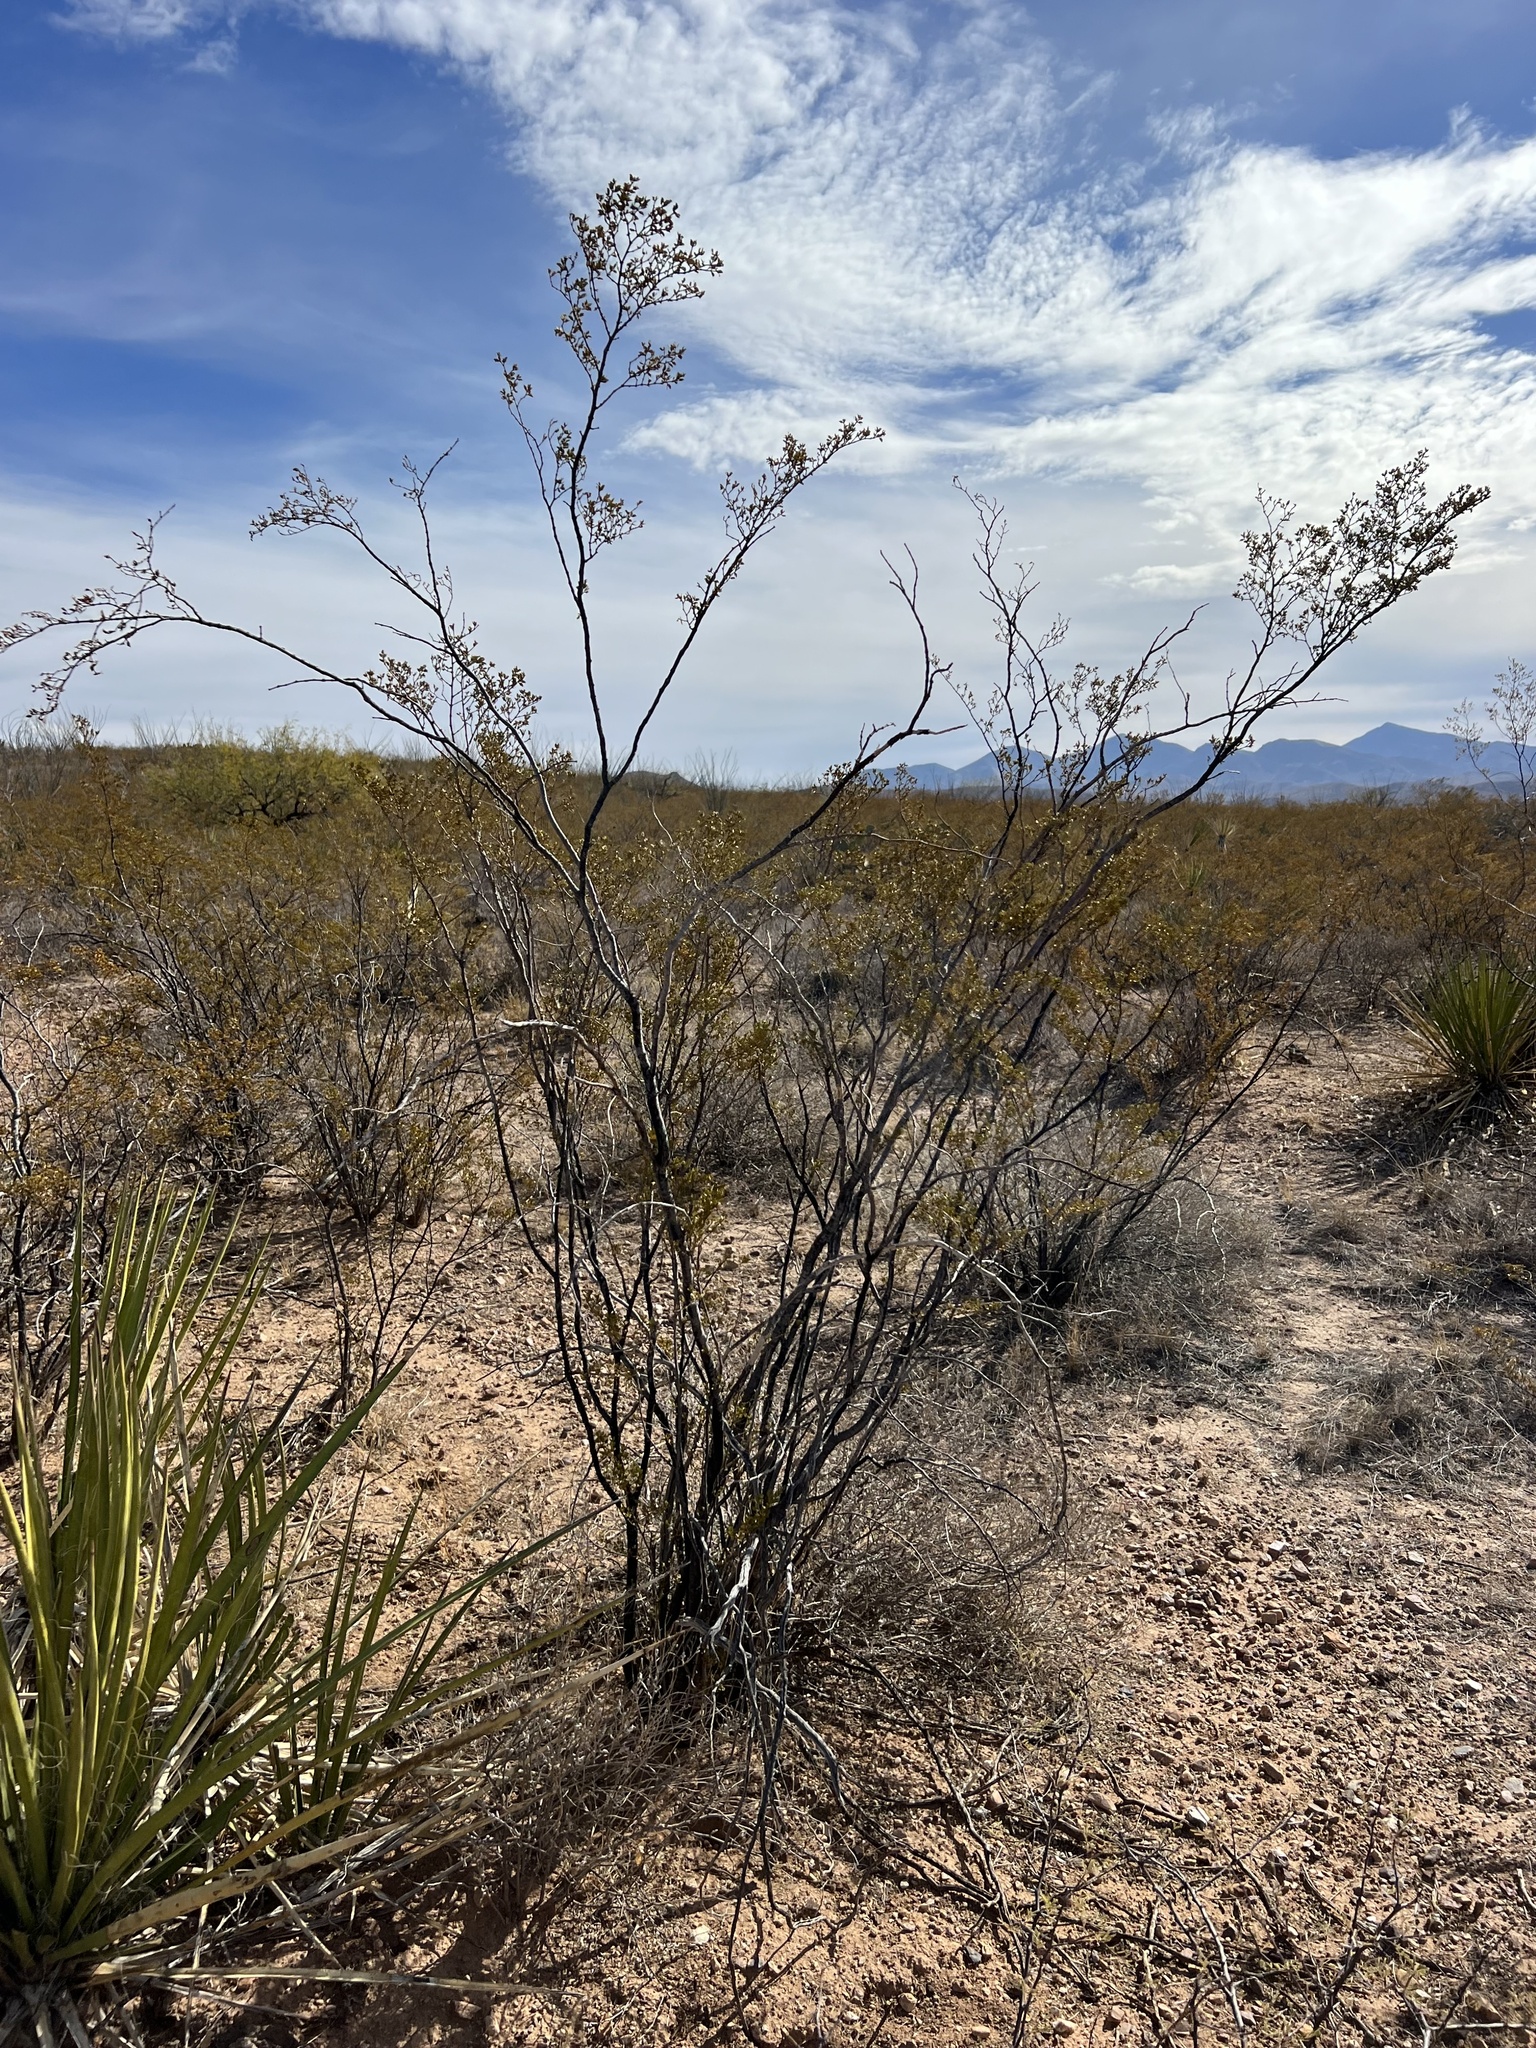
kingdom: Plantae
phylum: Tracheophyta
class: Magnoliopsida
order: Zygophyllales
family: Zygophyllaceae
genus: Larrea
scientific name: Larrea tridentata
